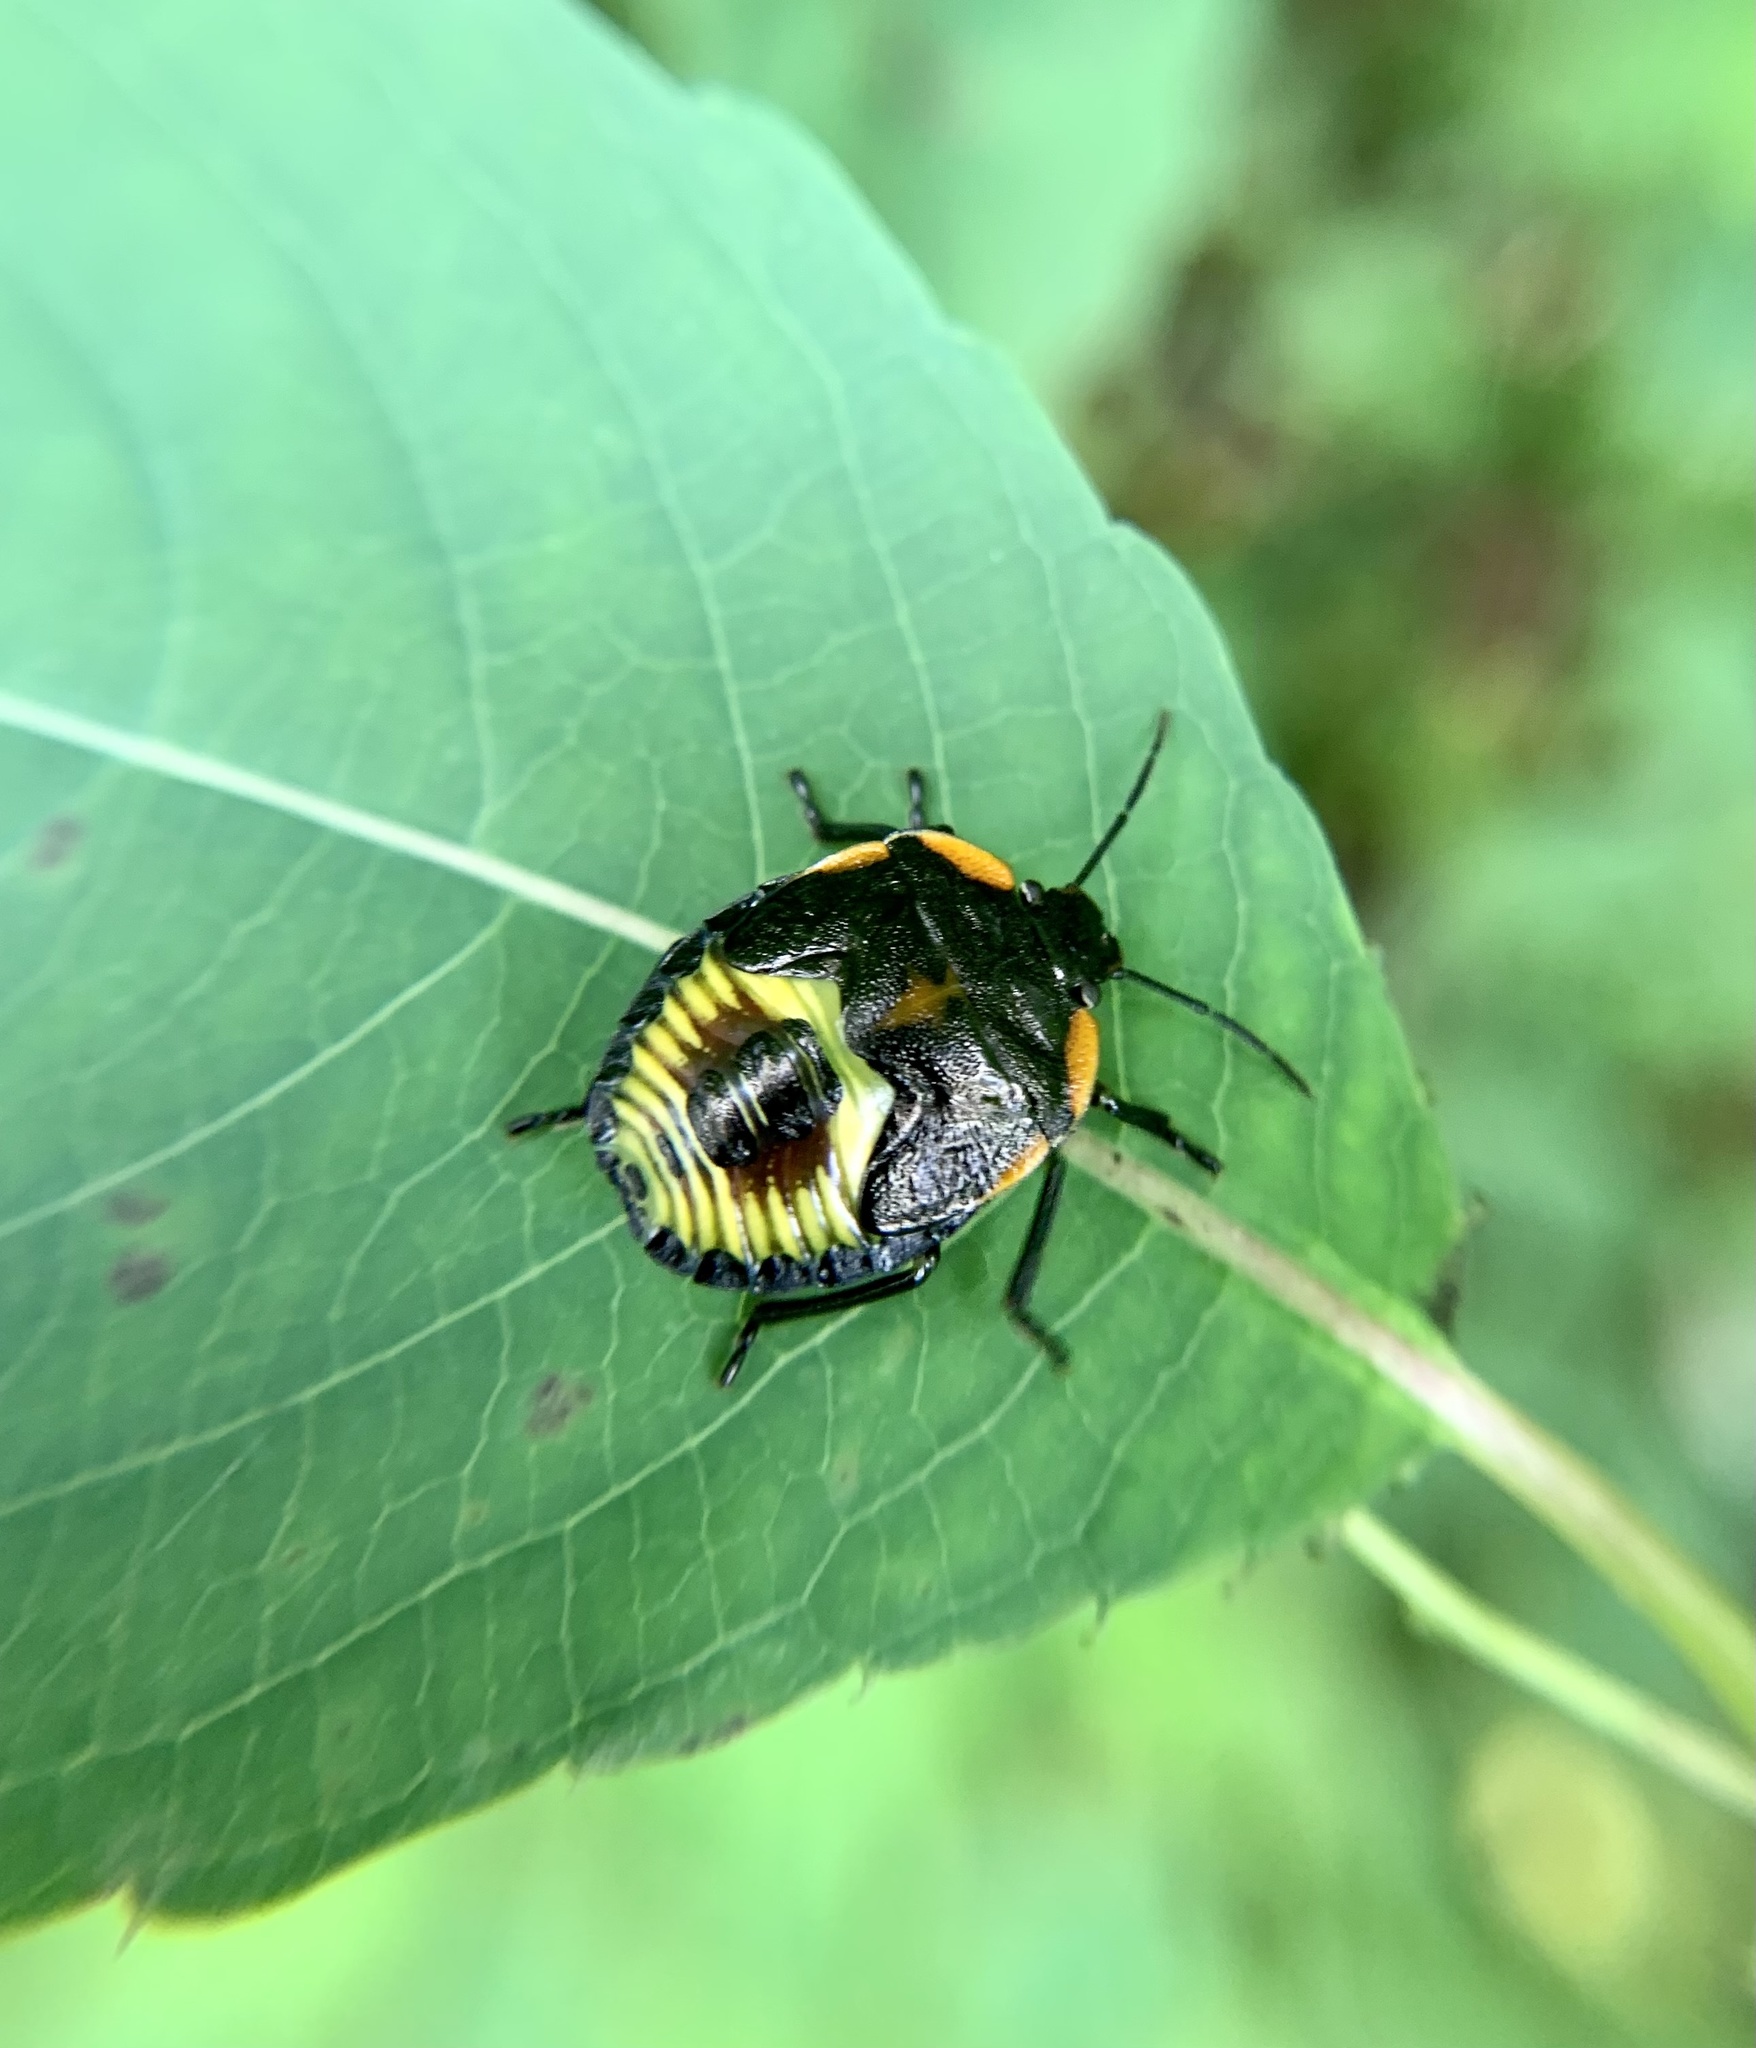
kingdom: Animalia
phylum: Arthropoda
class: Insecta
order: Hemiptera
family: Pentatomidae
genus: Chinavia
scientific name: Chinavia hilaris
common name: Green stink bug
